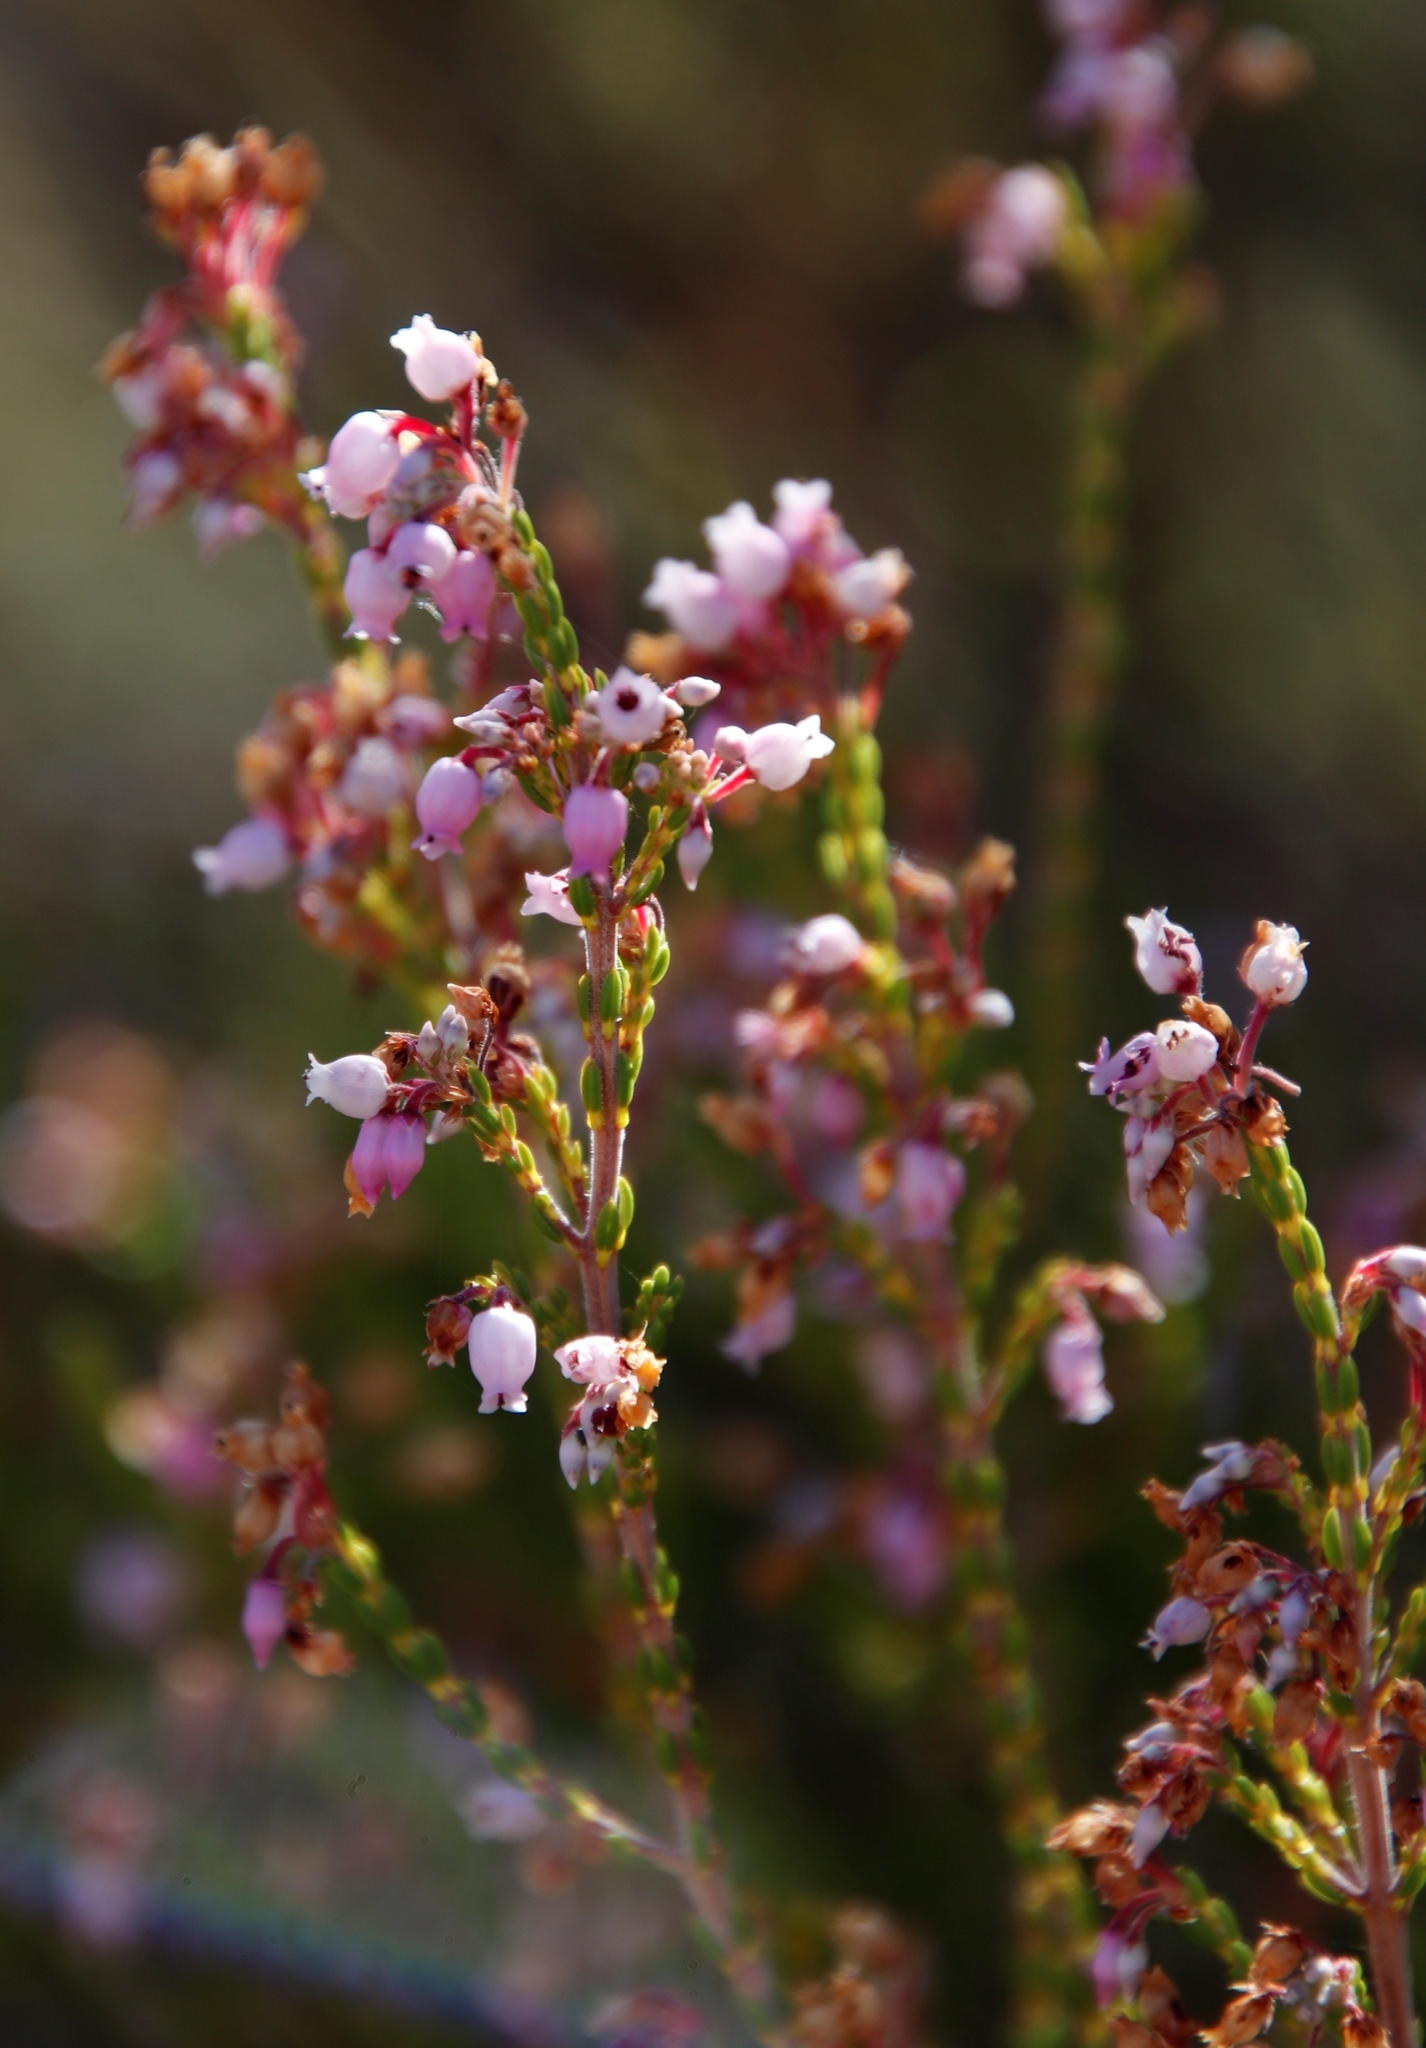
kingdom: Plantae
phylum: Tracheophyta
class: Magnoliopsida
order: Ericales
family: Ericaceae
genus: Erica
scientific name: Erica verecunda
